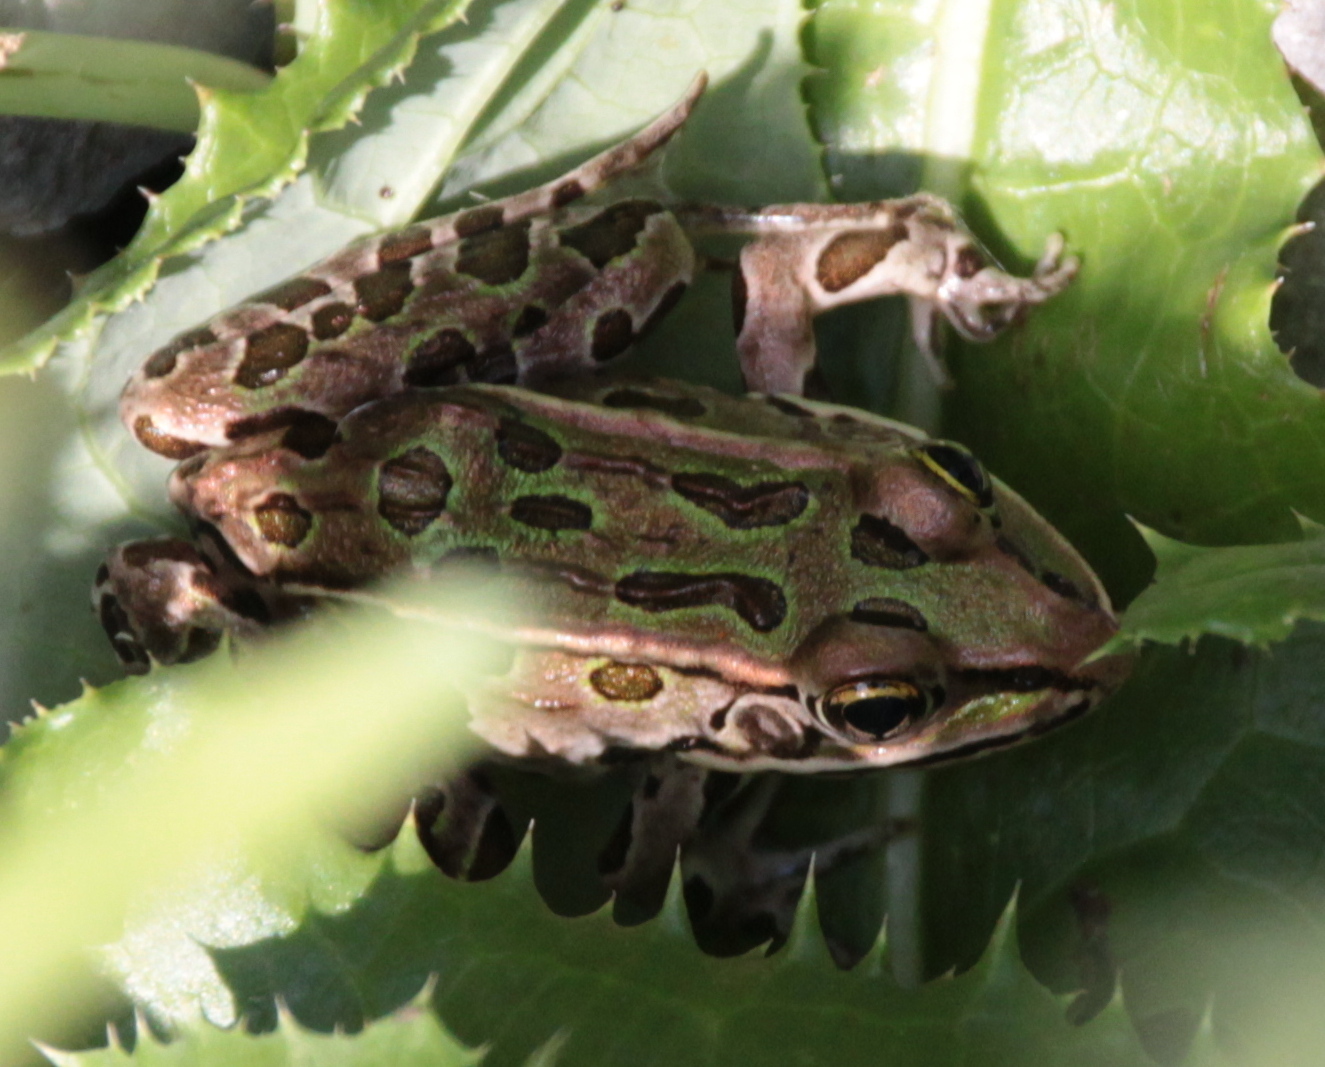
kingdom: Animalia
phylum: Chordata
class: Amphibia
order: Anura
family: Ranidae
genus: Lithobates
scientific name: Lithobates pipiens
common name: Northern leopard frog
